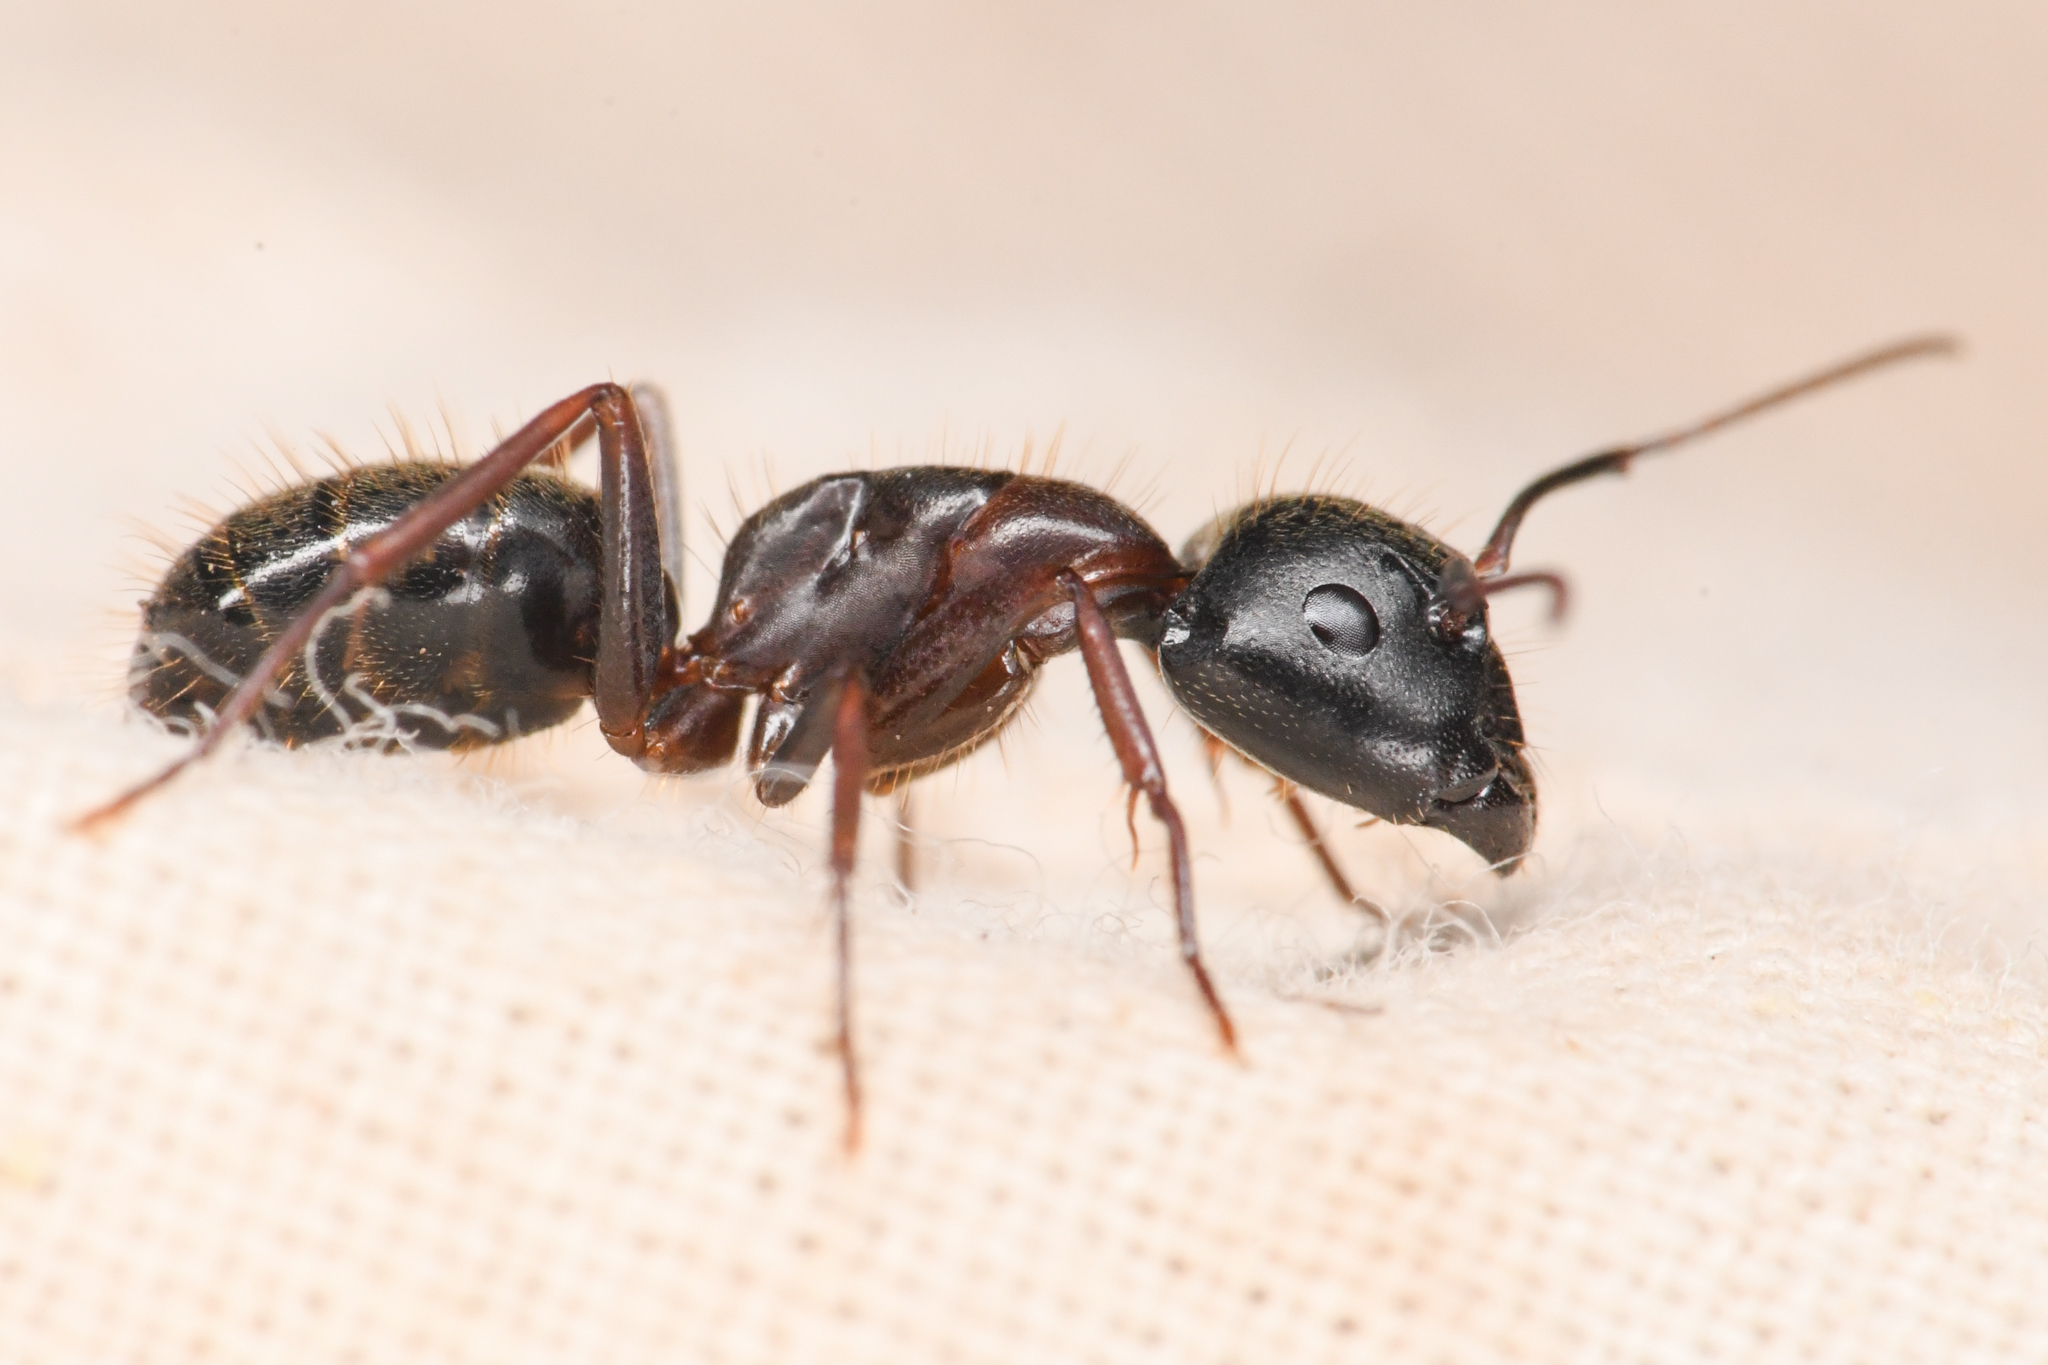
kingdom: Animalia
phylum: Arthropoda
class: Insecta
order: Hymenoptera
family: Formicidae
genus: Camponotus
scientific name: Camponotus dumetorum
